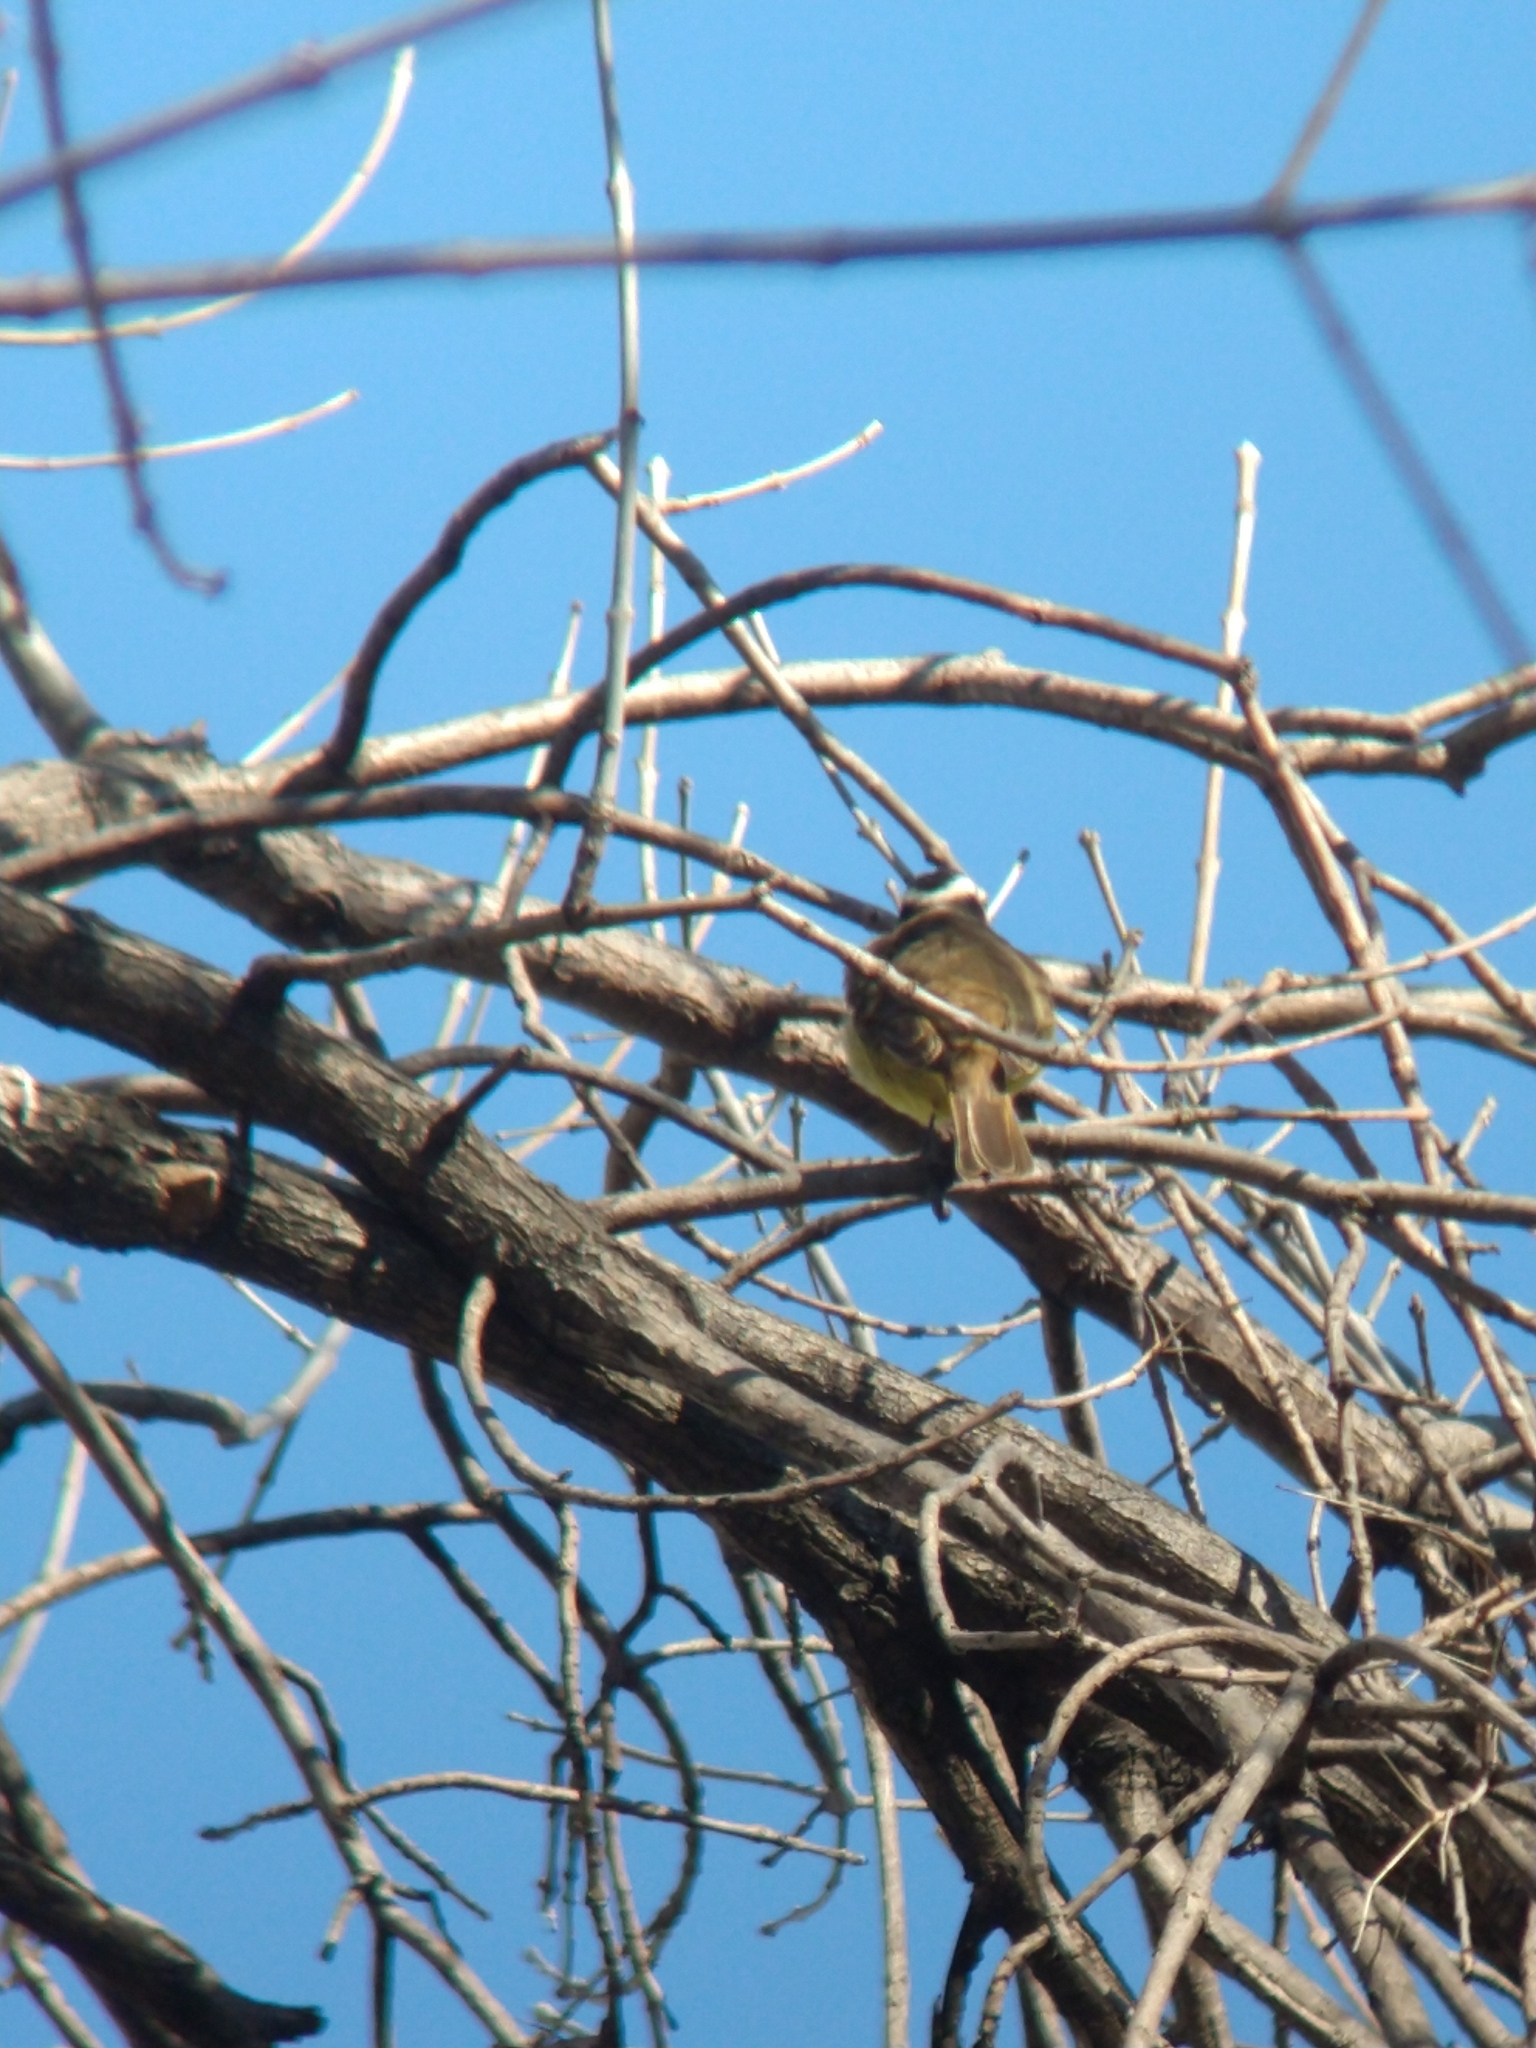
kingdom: Animalia
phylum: Chordata
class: Aves
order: Passeriformes
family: Tyrannidae
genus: Pitangus
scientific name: Pitangus sulphuratus
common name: Great kiskadee
